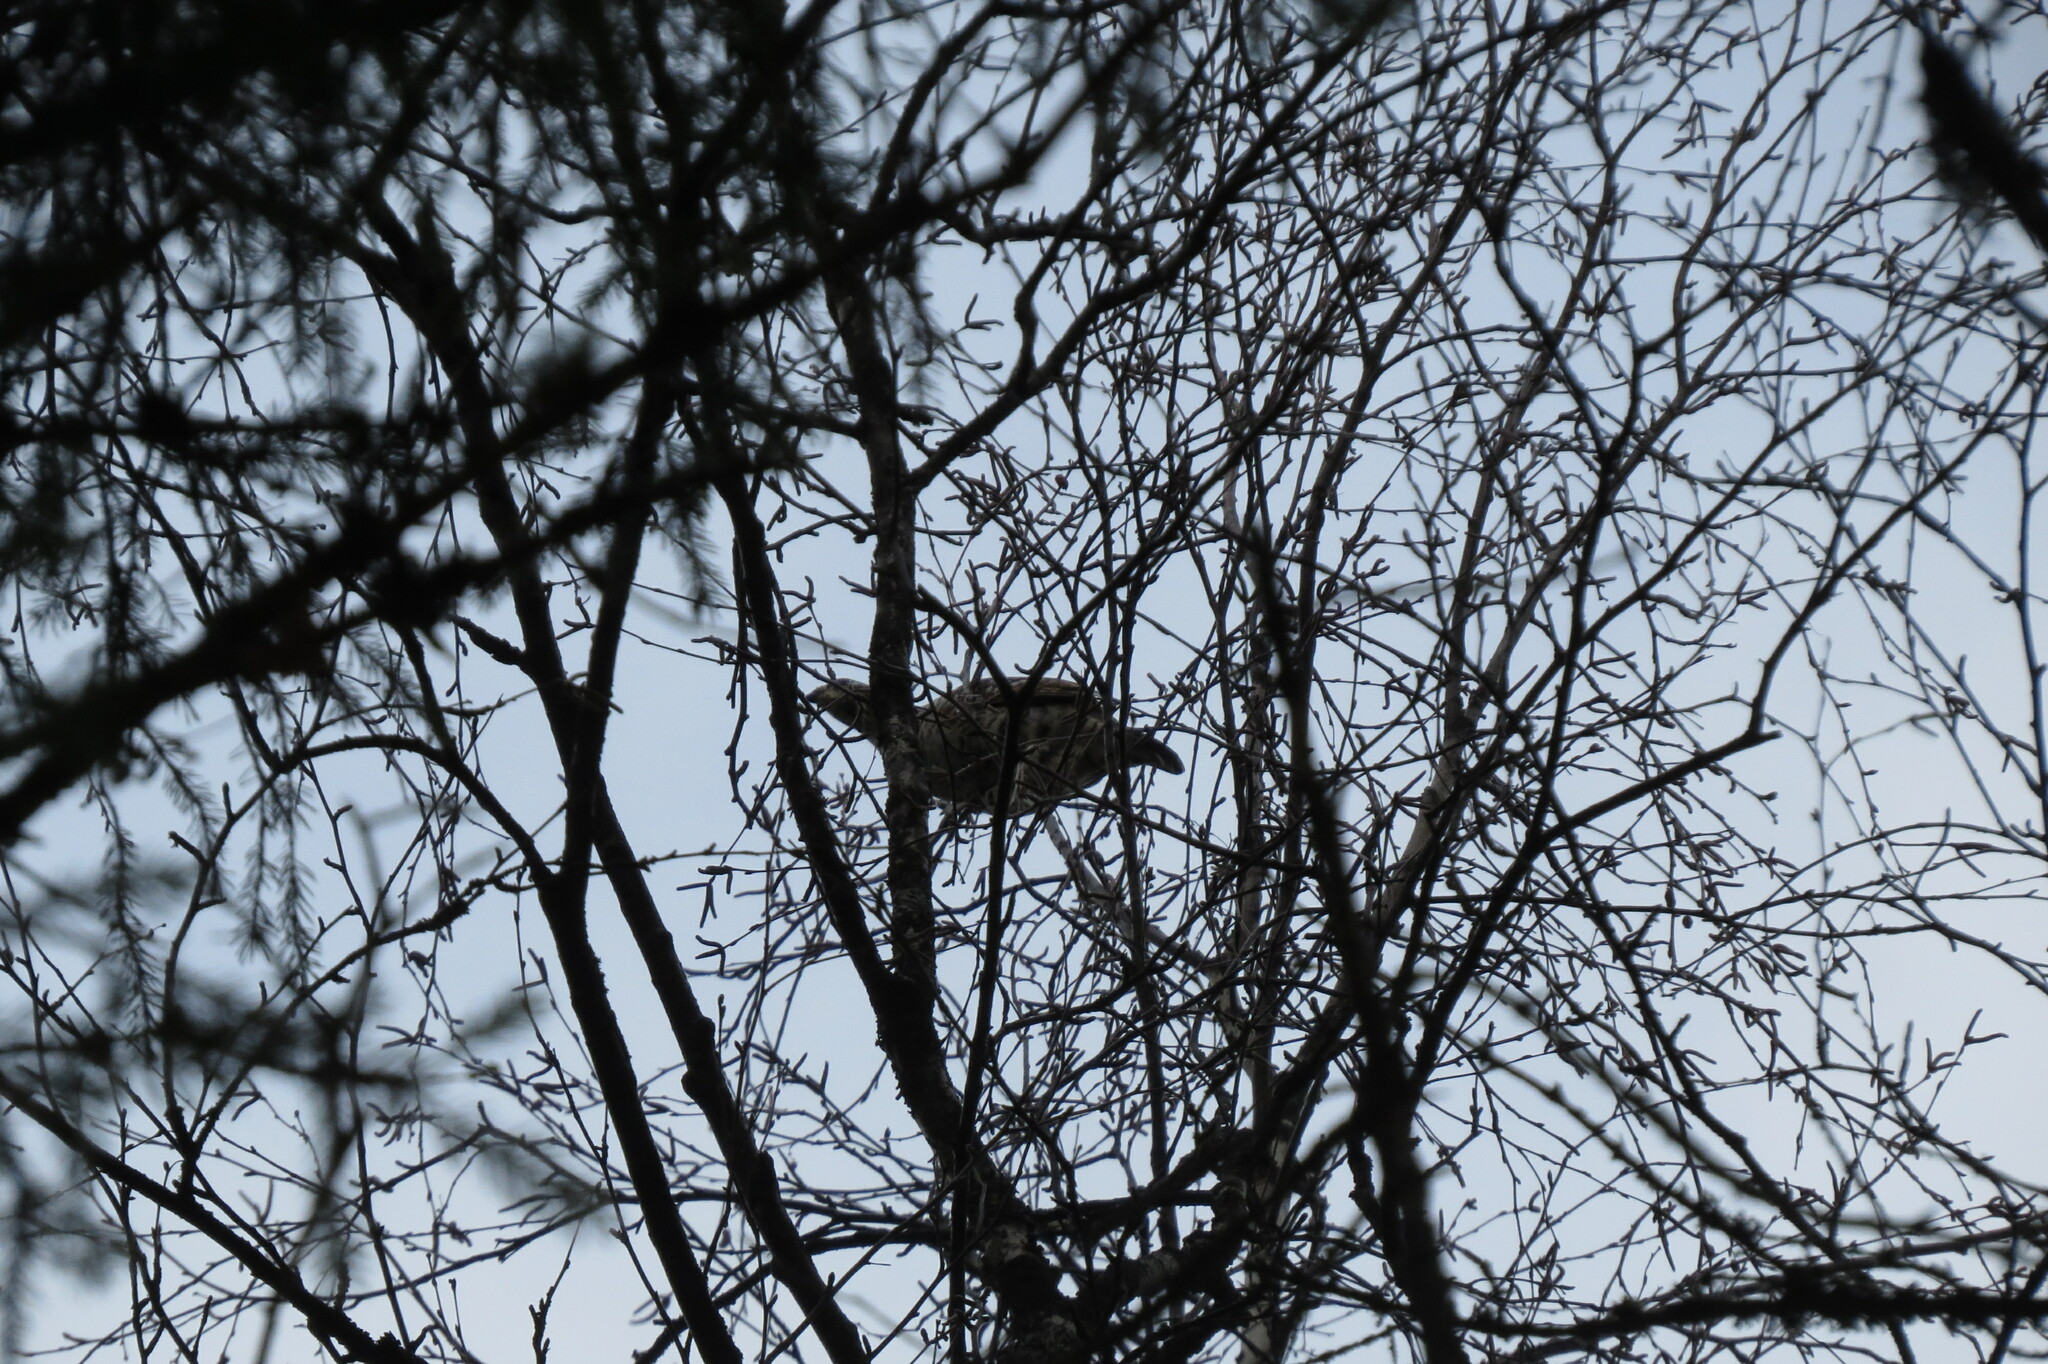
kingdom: Animalia
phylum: Chordata
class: Aves
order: Galliformes
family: Phasianidae
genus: Tetrastes
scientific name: Tetrastes bonasia
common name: Hazel grouse
